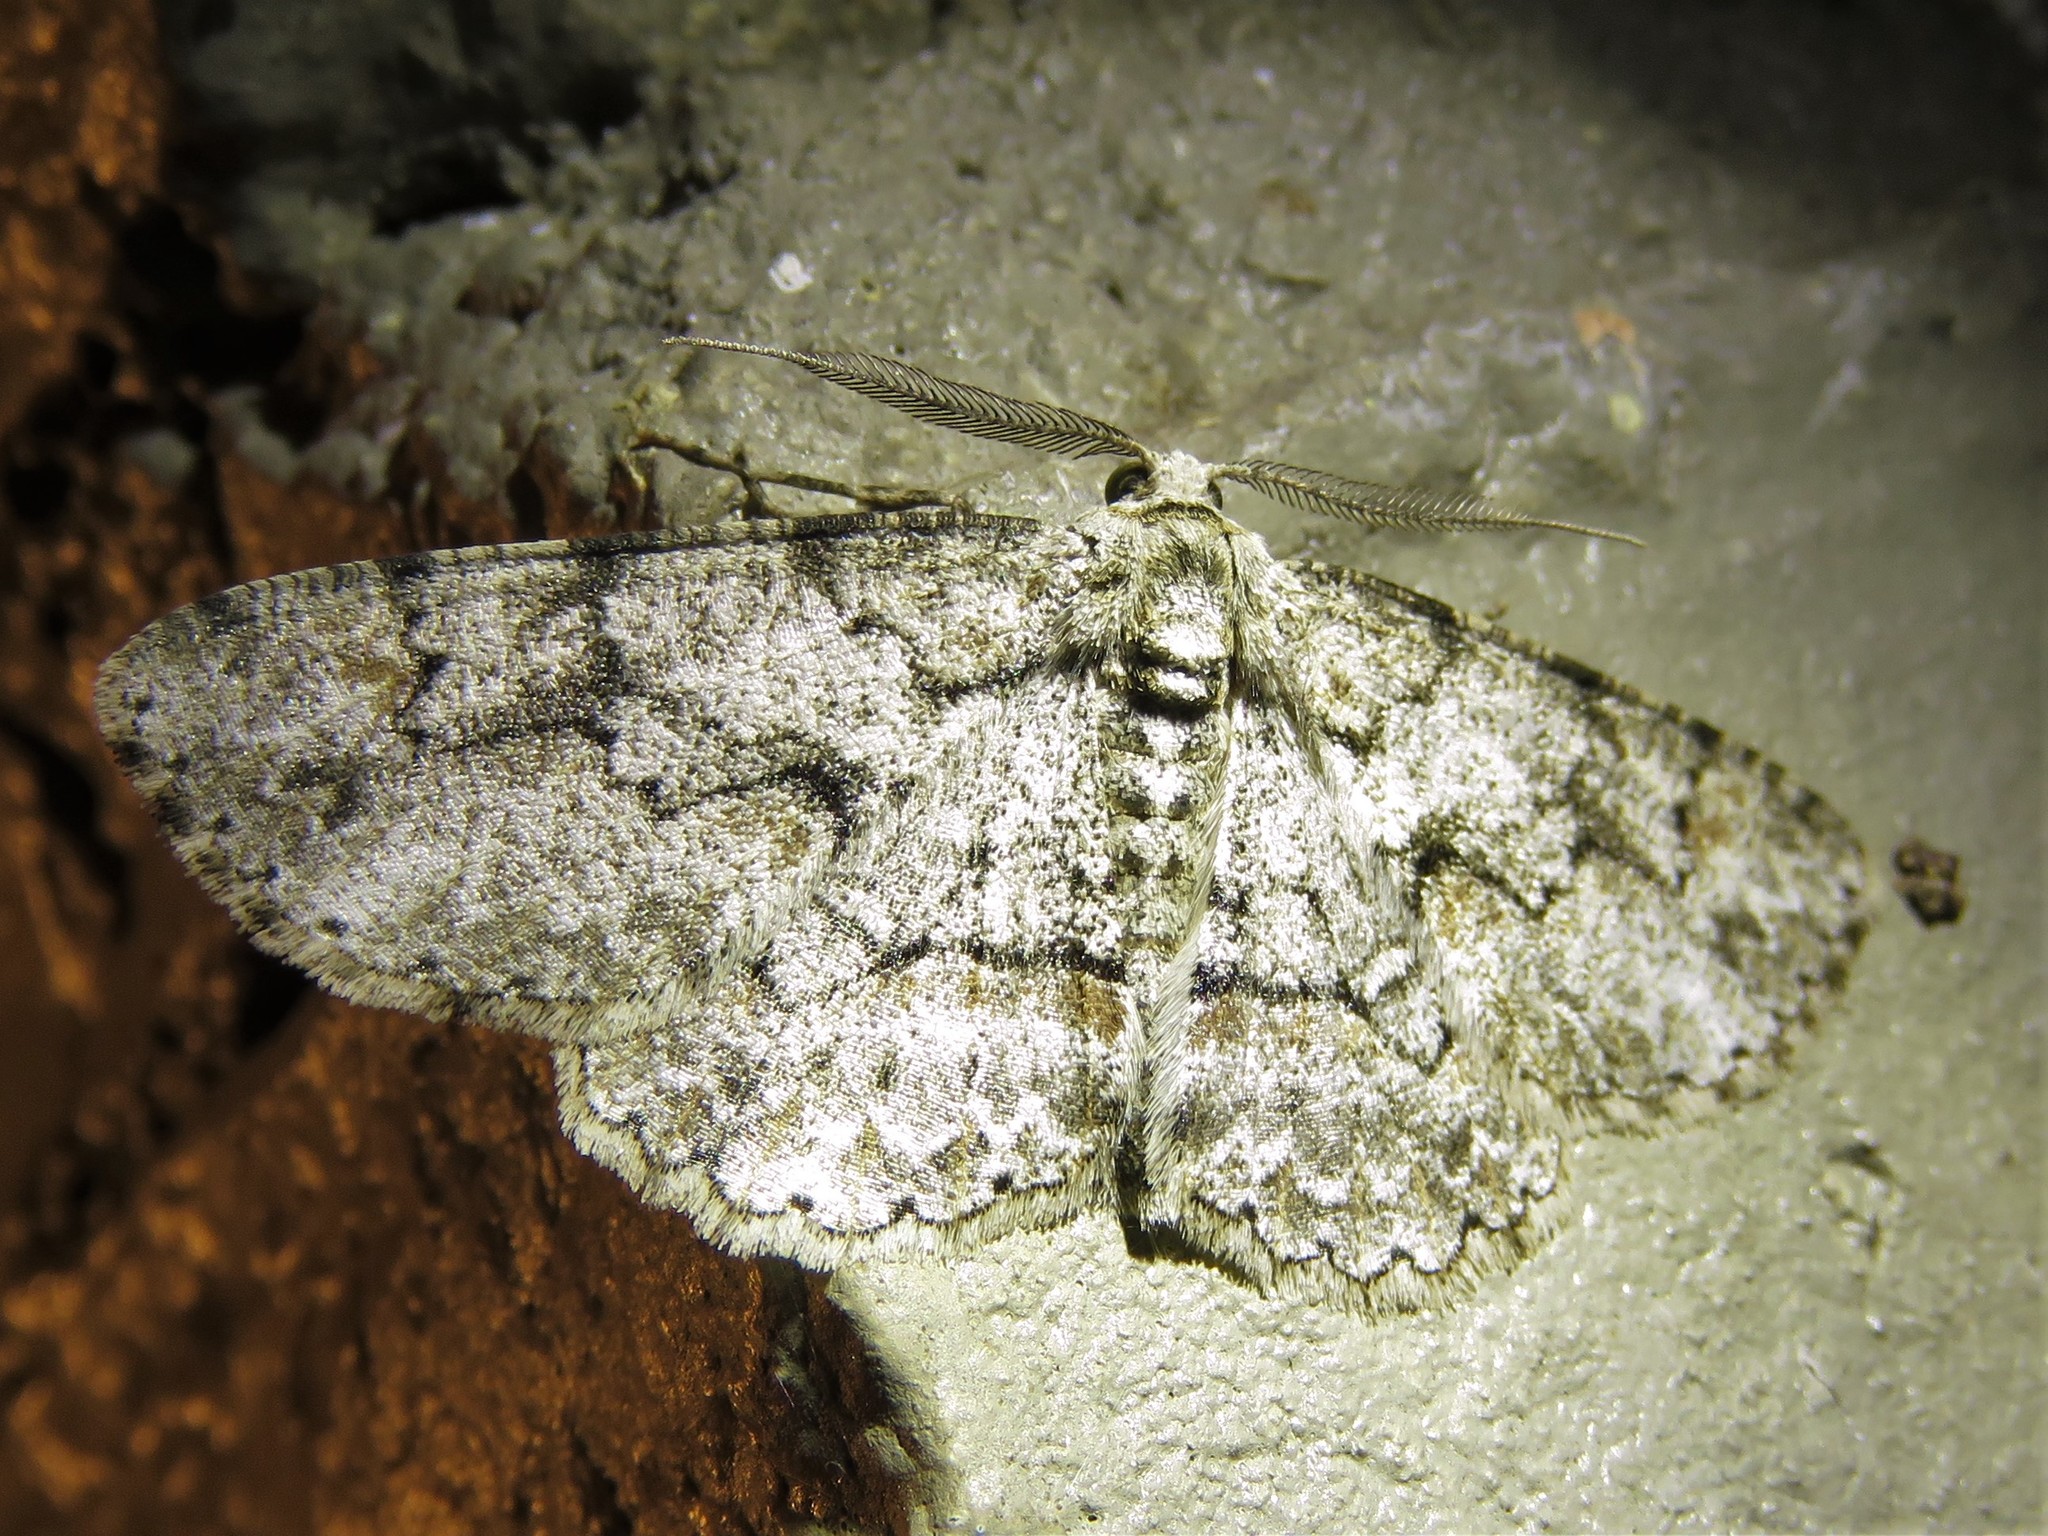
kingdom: Animalia
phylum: Arthropoda
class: Insecta
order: Lepidoptera
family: Geometridae
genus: Iridopsis
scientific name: Iridopsis defectaria
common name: Brown-shaded gray
